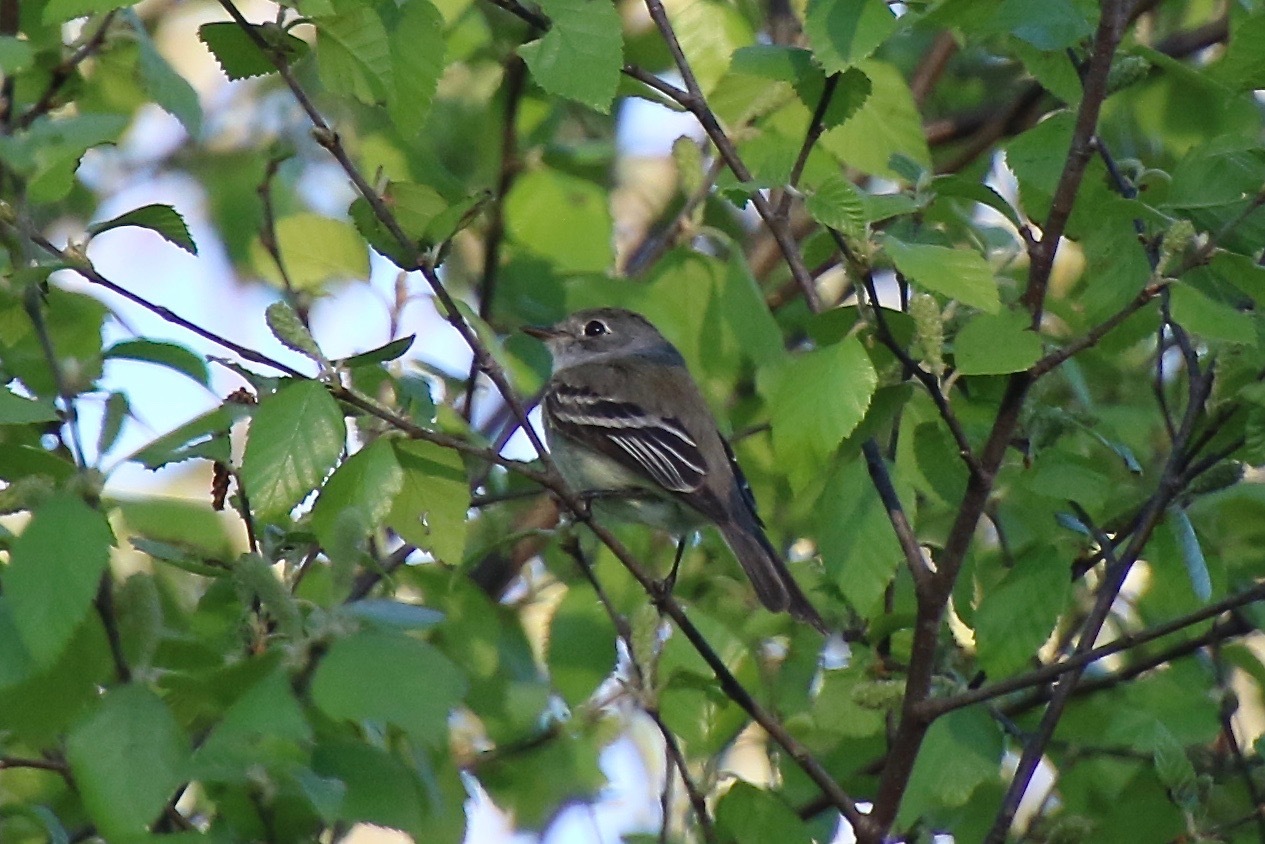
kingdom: Animalia
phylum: Chordata
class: Aves
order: Passeriformes
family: Tyrannidae
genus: Empidonax
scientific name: Empidonax minimus
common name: Least flycatcher
